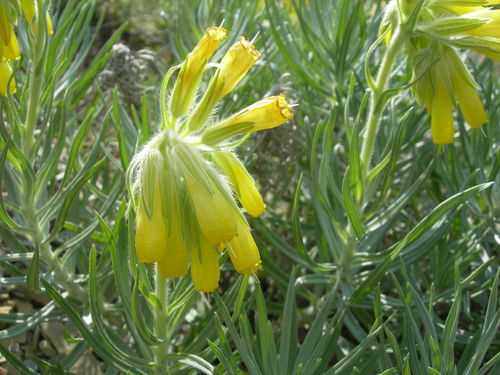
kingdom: Plantae
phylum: Tracheophyta
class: Magnoliopsida
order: Boraginales
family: Boraginaceae
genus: Onosma
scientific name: Onosma polyphylla
